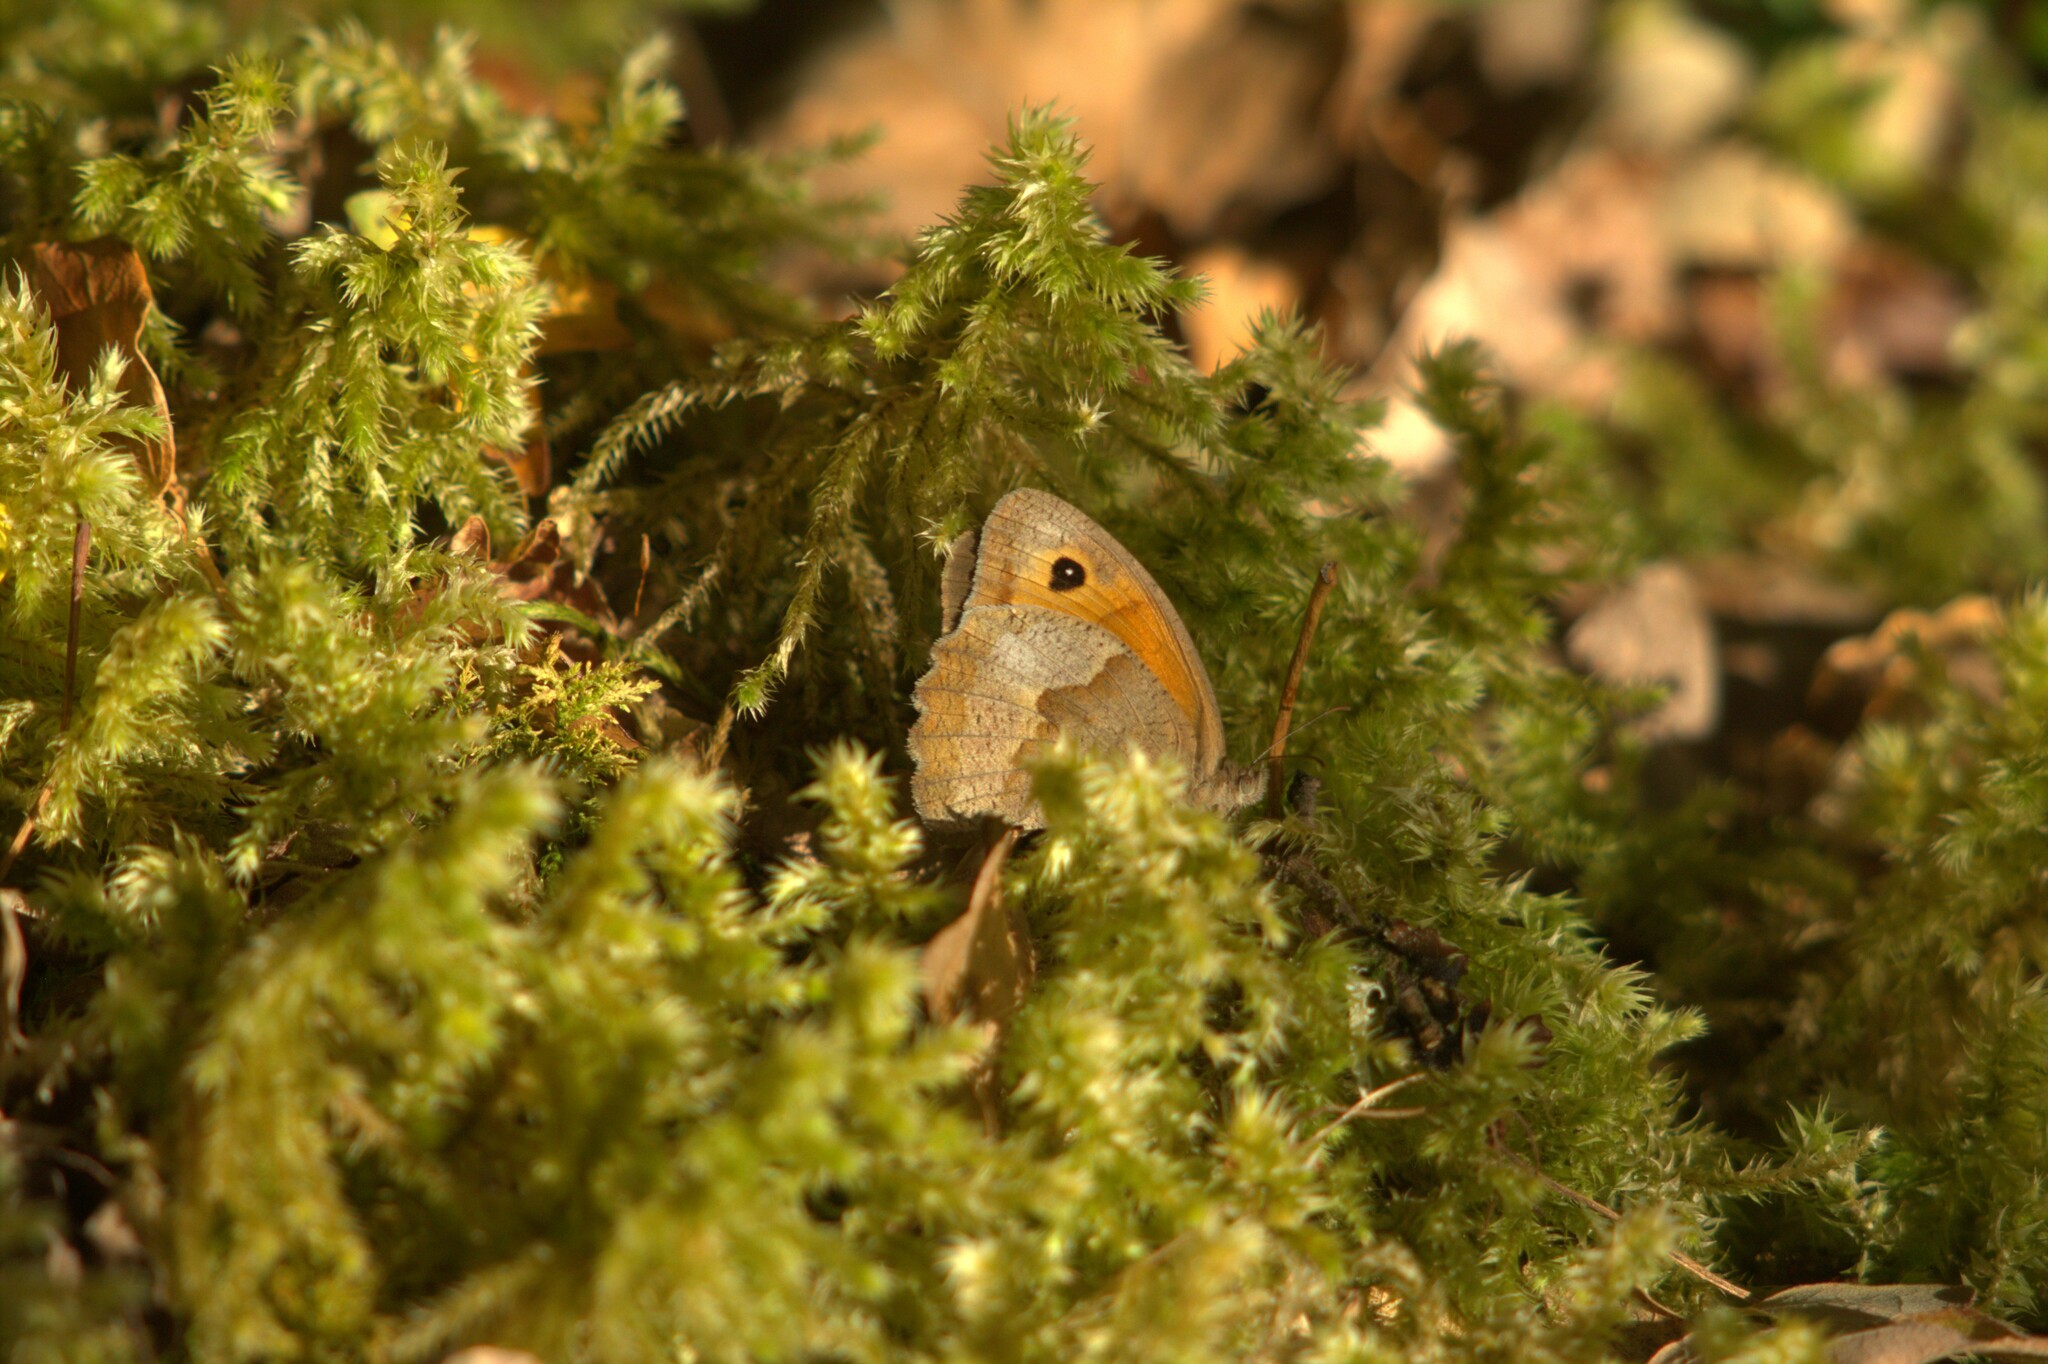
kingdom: Animalia
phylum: Arthropoda
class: Insecta
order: Lepidoptera
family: Nymphalidae
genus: Maniola
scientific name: Maniola jurtina
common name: Meadow brown
